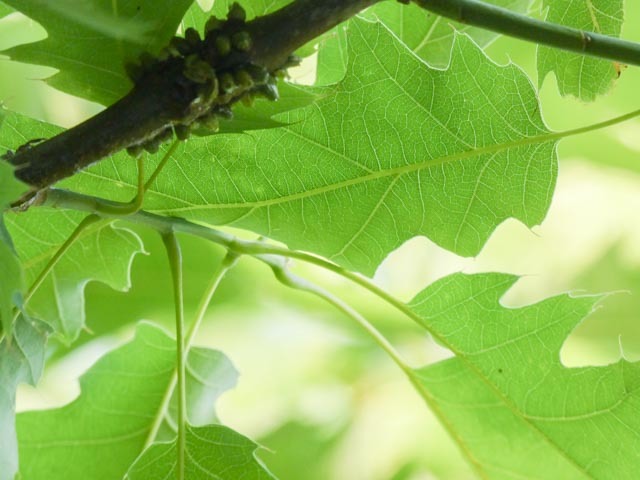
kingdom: Animalia
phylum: Arthropoda
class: Insecta
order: Hymenoptera
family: Cynipidae
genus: Callirhytis
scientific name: Callirhytis
